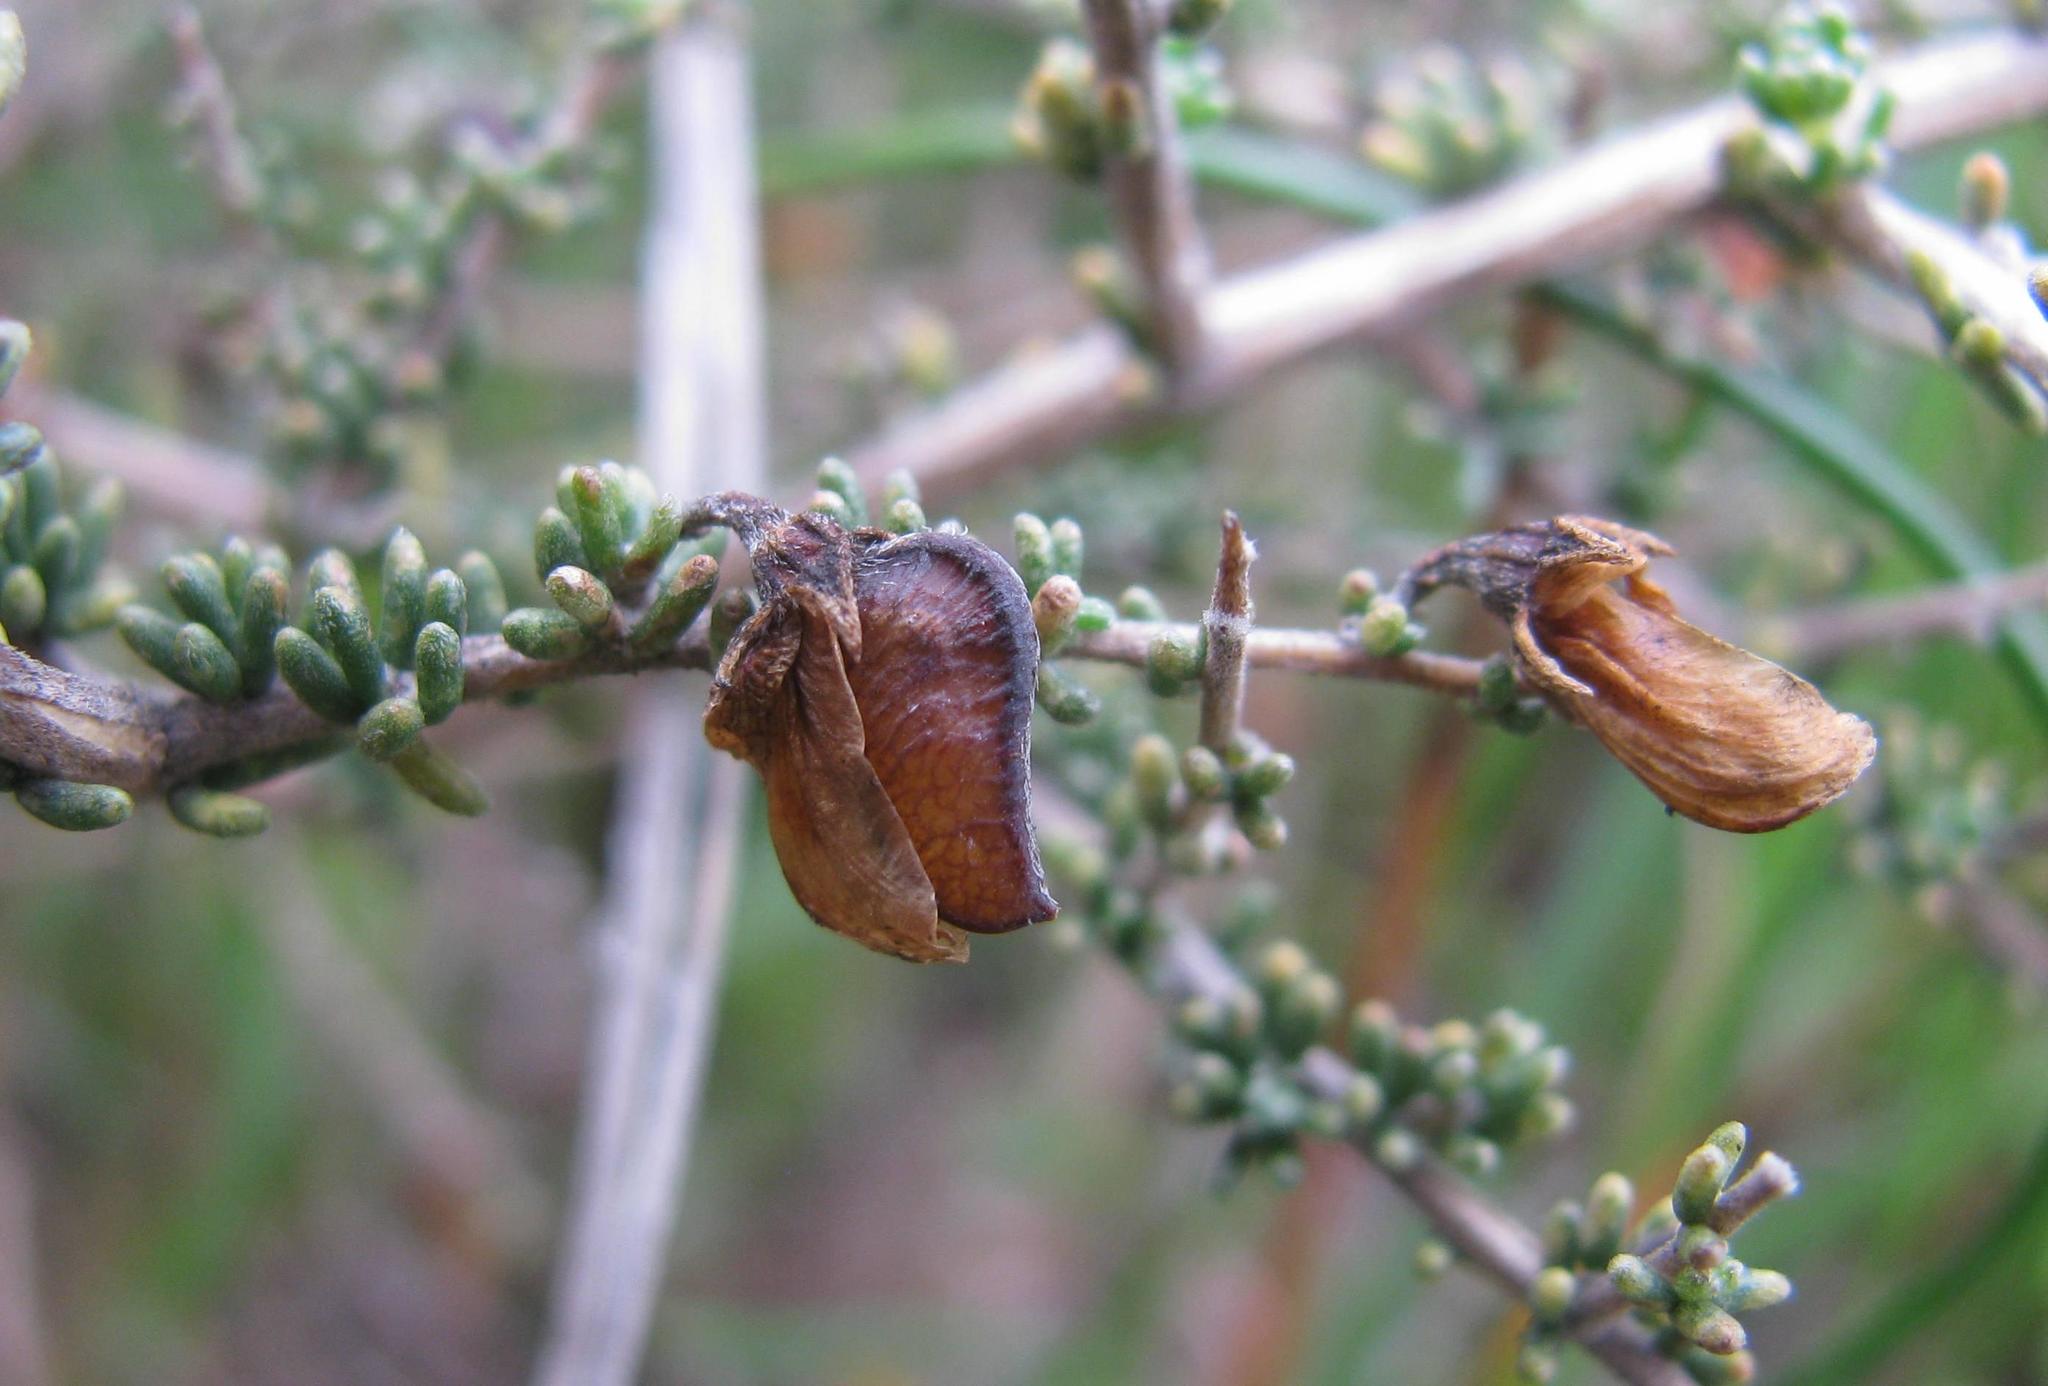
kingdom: Plantae
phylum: Tracheophyta
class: Magnoliopsida
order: Fabales
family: Fabaceae
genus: Aspalathus
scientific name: Aspalathus recurva
